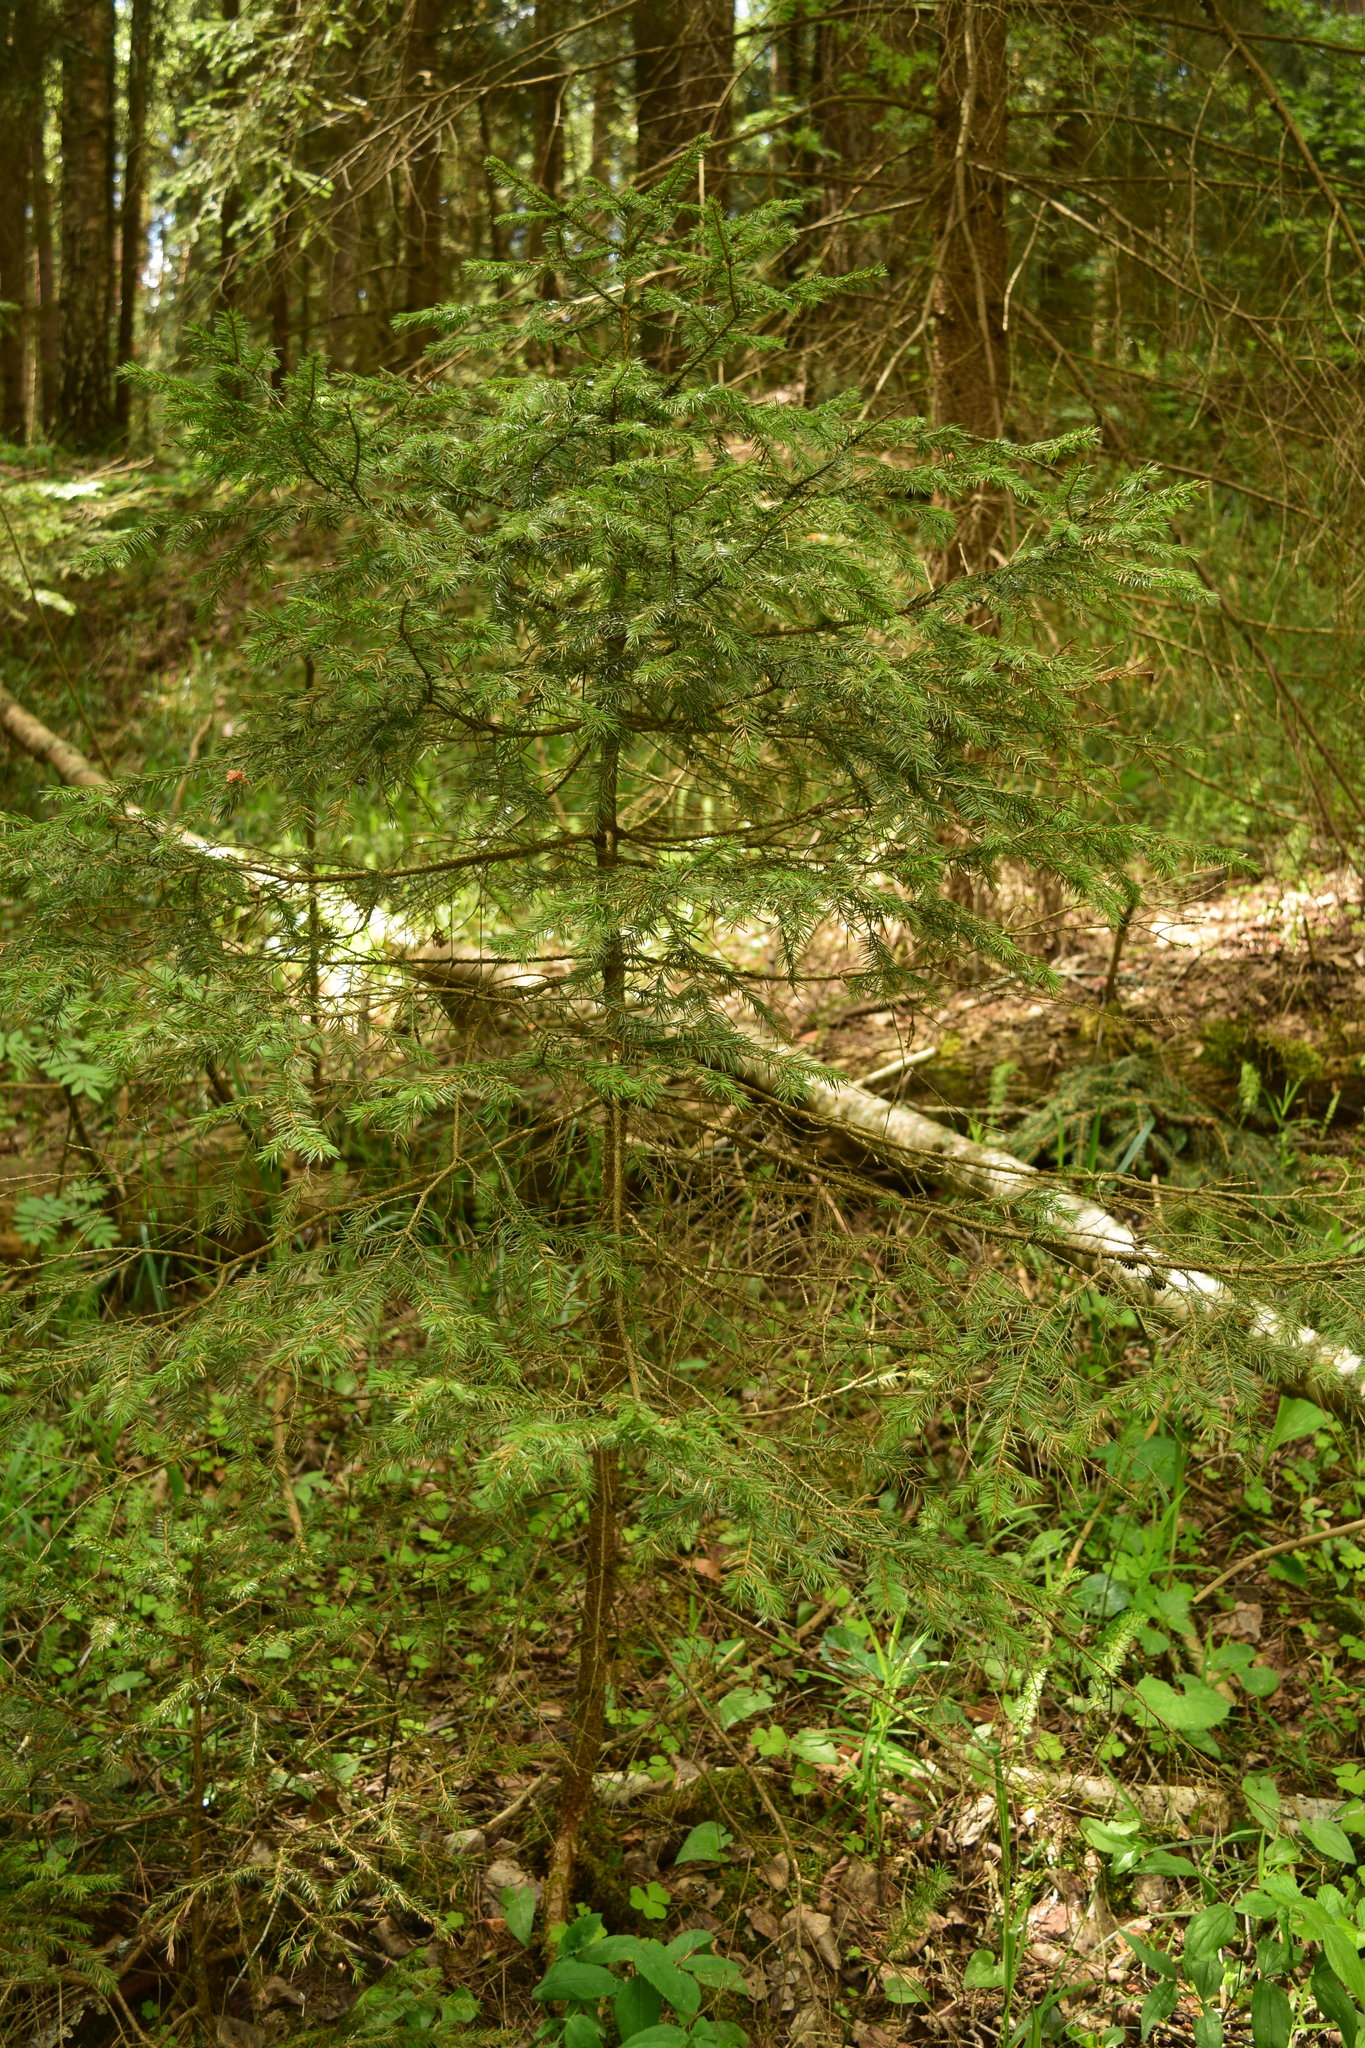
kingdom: Plantae
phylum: Tracheophyta
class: Pinopsida
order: Pinales
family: Pinaceae
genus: Picea
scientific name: Picea abies
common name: Norway spruce
